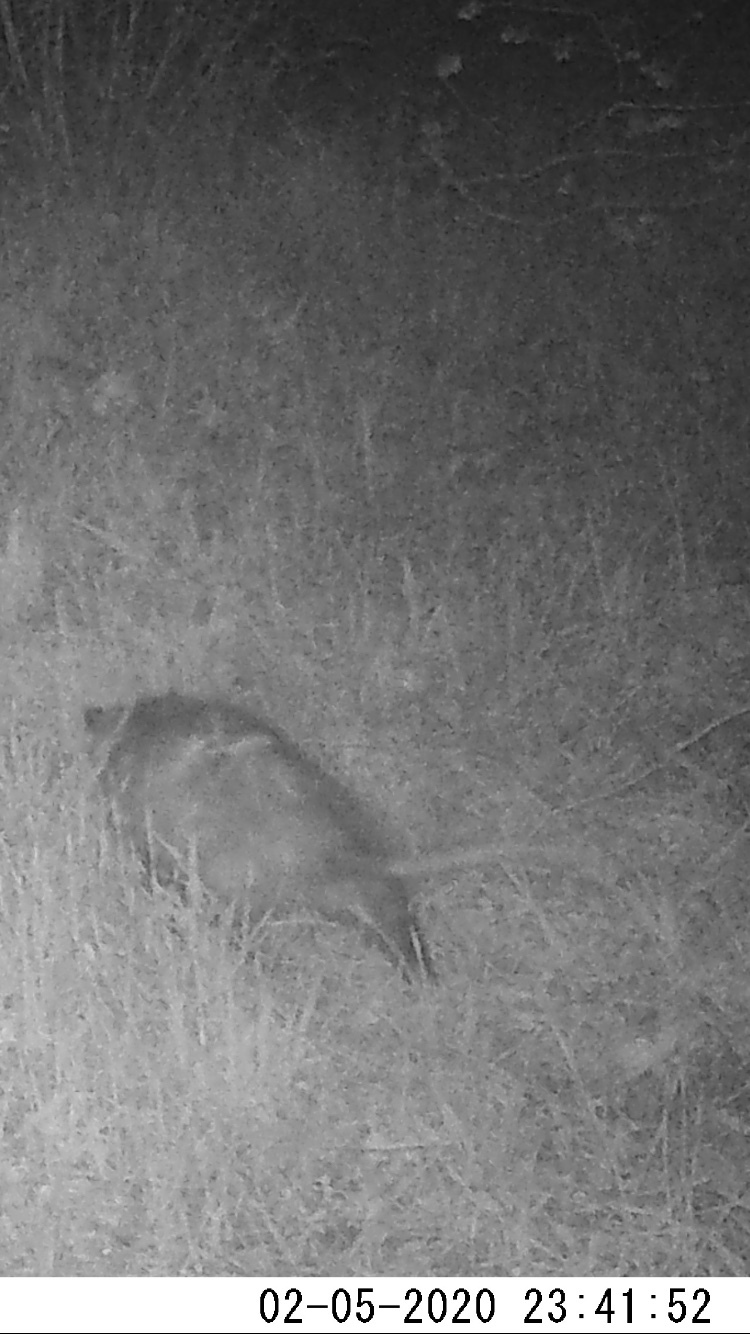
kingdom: Animalia
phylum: Chordata
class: Mammalia
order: Didelphimorphia
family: Didelphidae
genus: Didelphis
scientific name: Didelphis virginiana
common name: Virginia opossum
